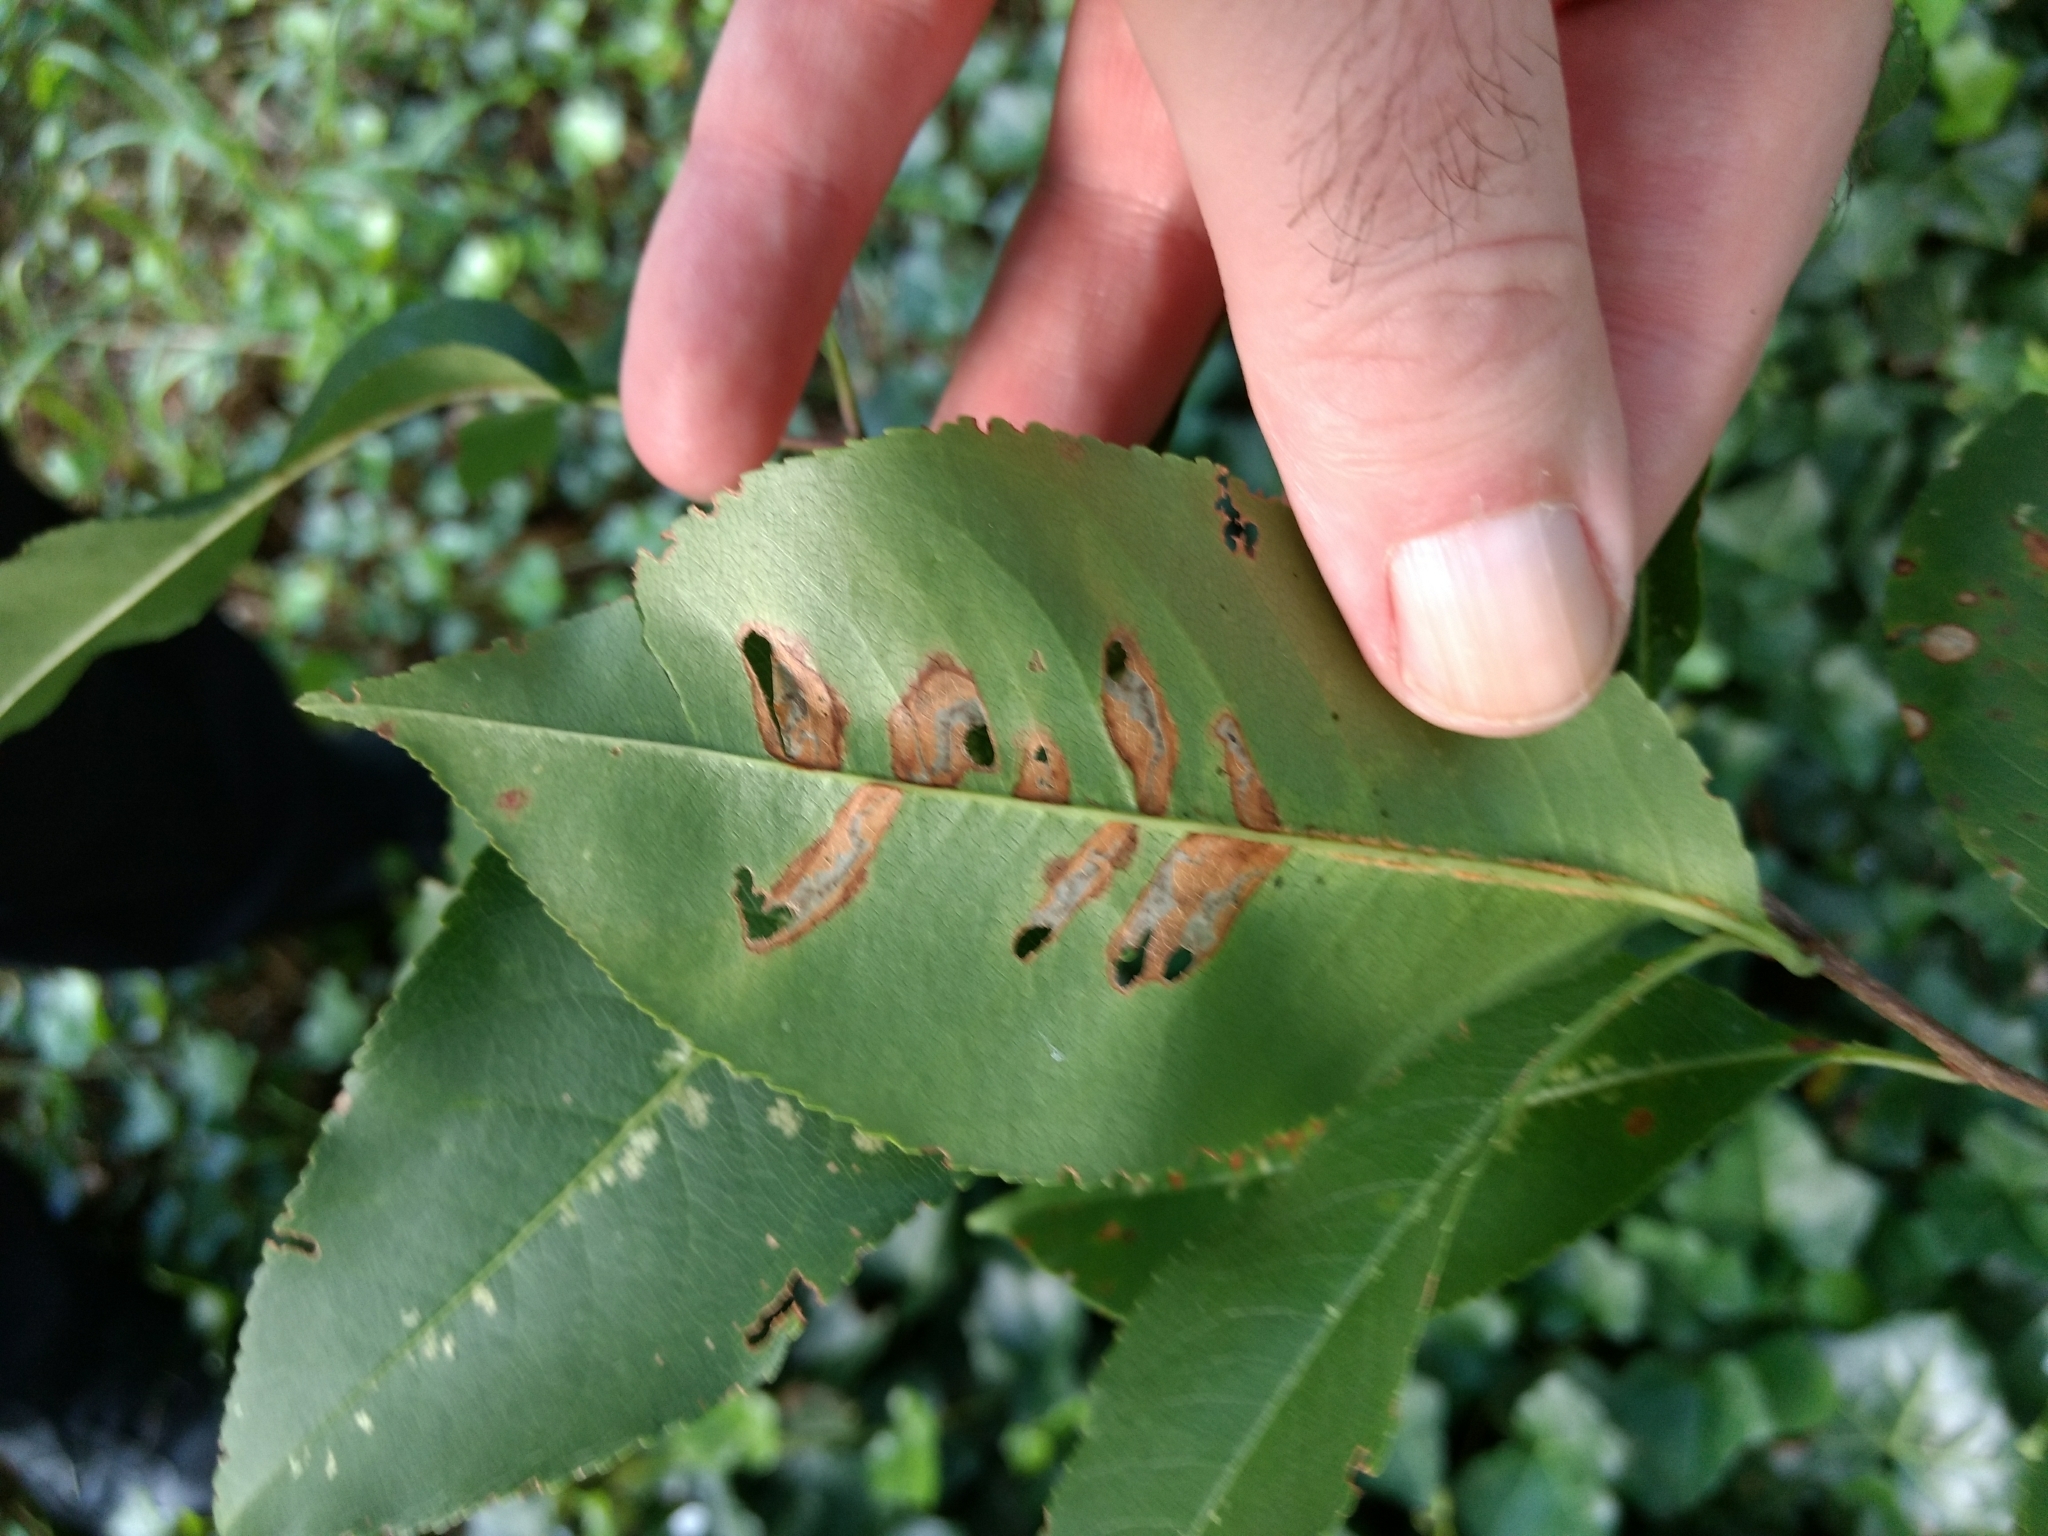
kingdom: Animalia
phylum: Arthropoda
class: Insecta
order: Lepidoptera
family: Heliozelidae
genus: Coptodisca
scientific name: Coptodisca splendoriferella
